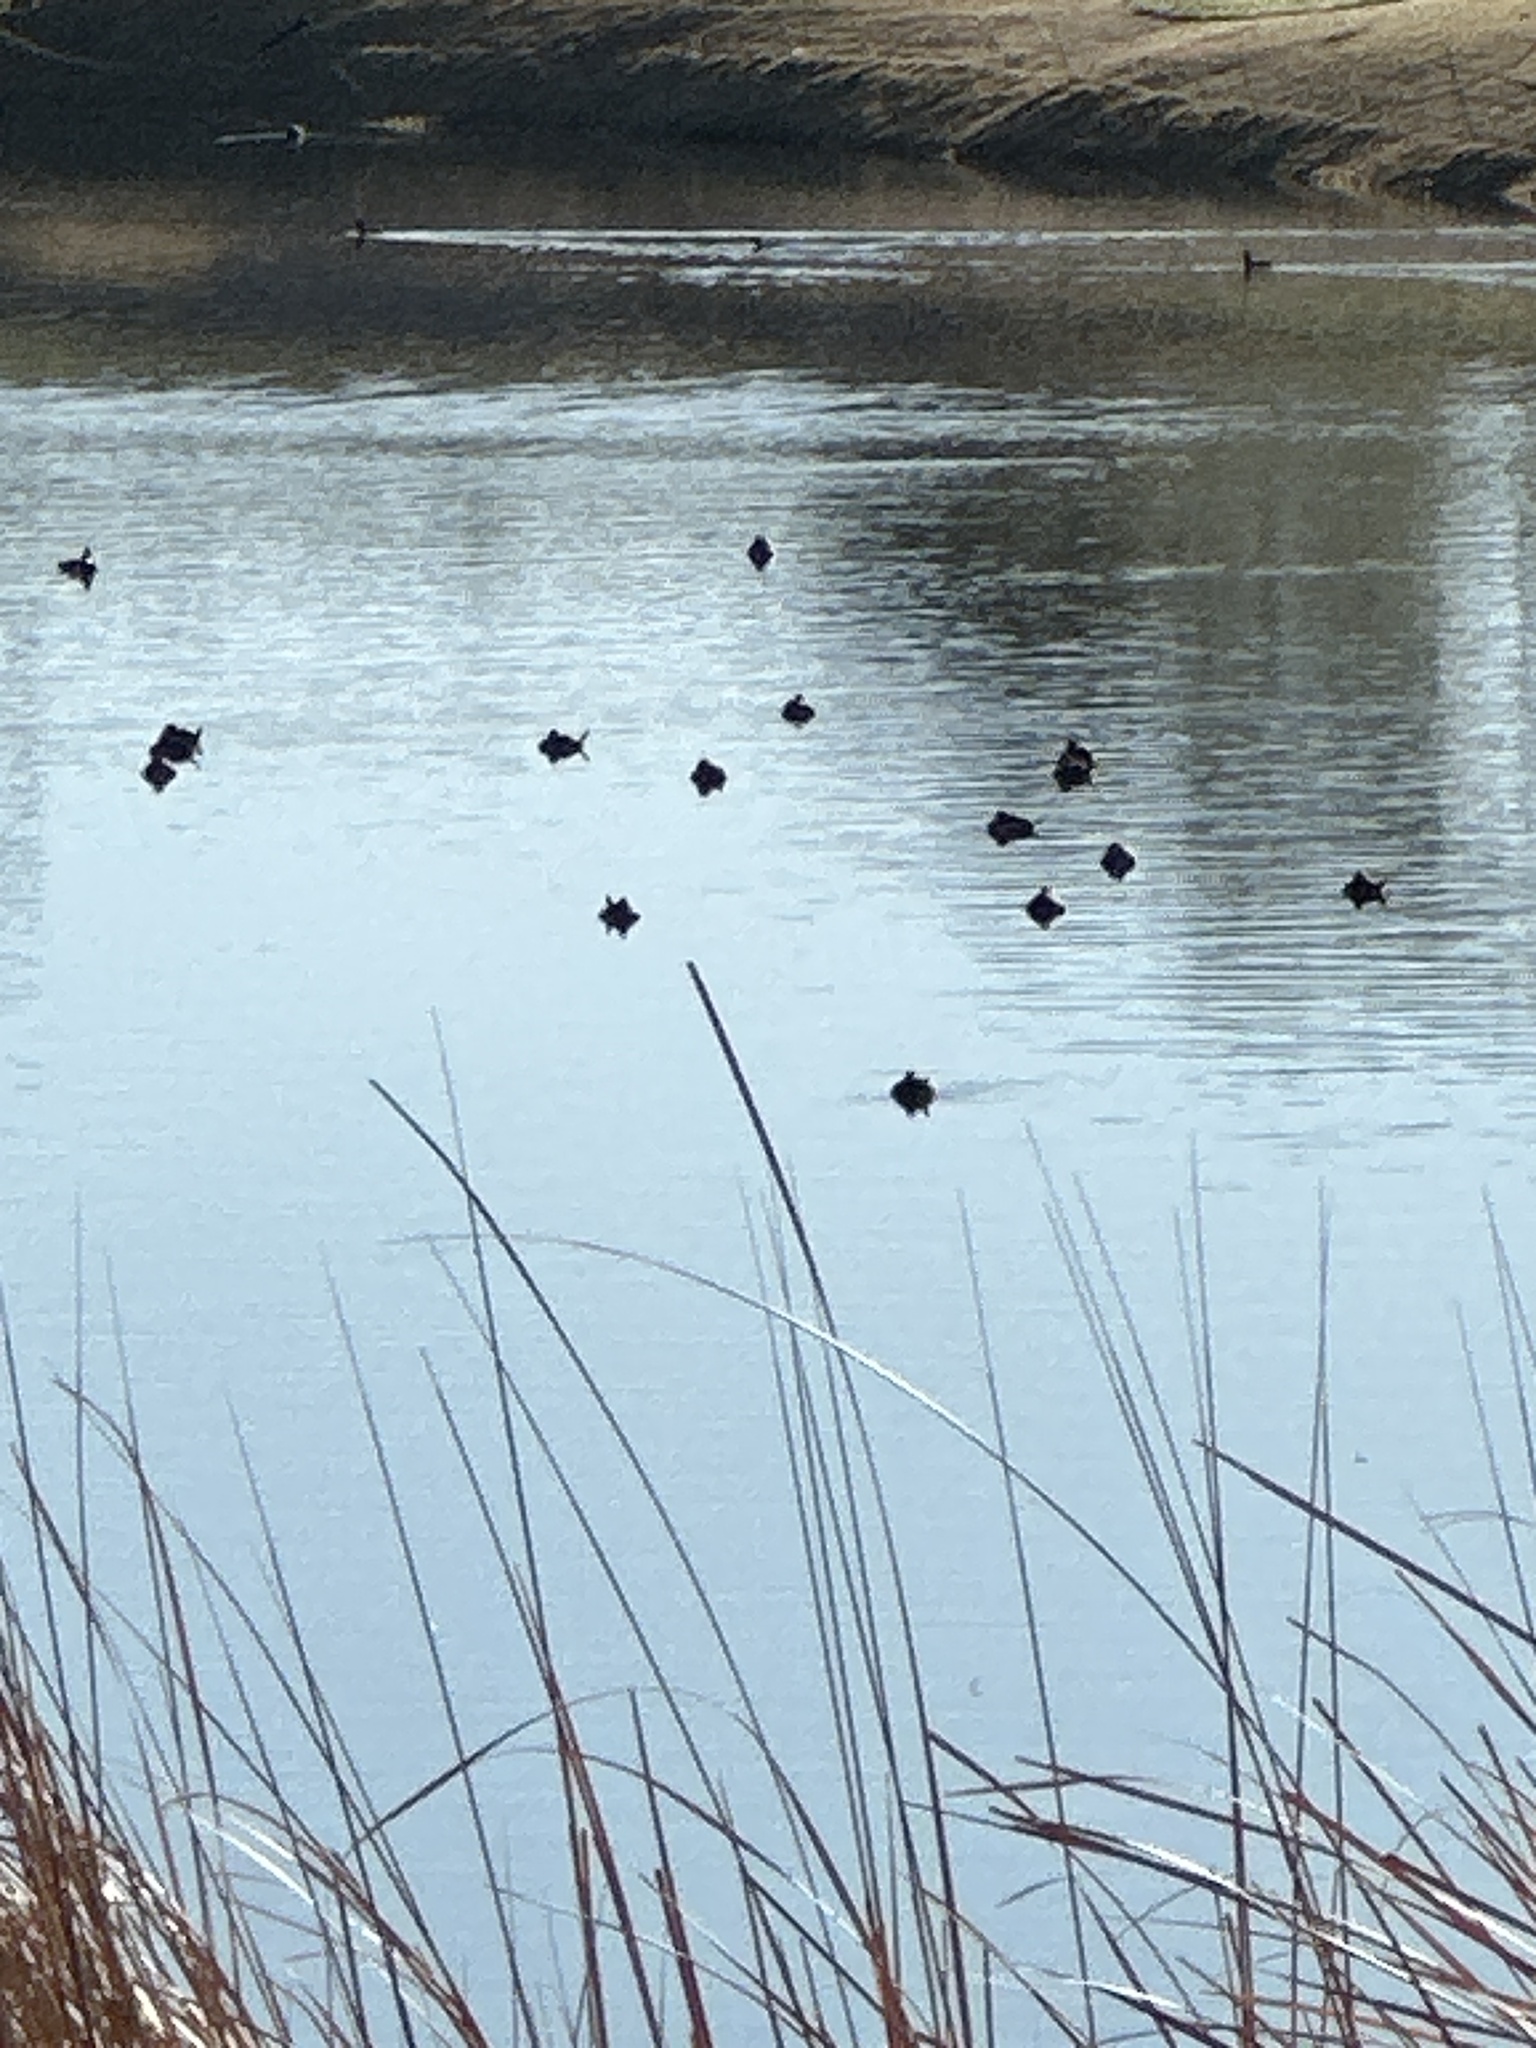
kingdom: Animalia
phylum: Chordata
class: Aves
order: Anseriformes
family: Anatidae
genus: Oxyura
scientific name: Oxyura jamaicensis
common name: Ruddy duck
